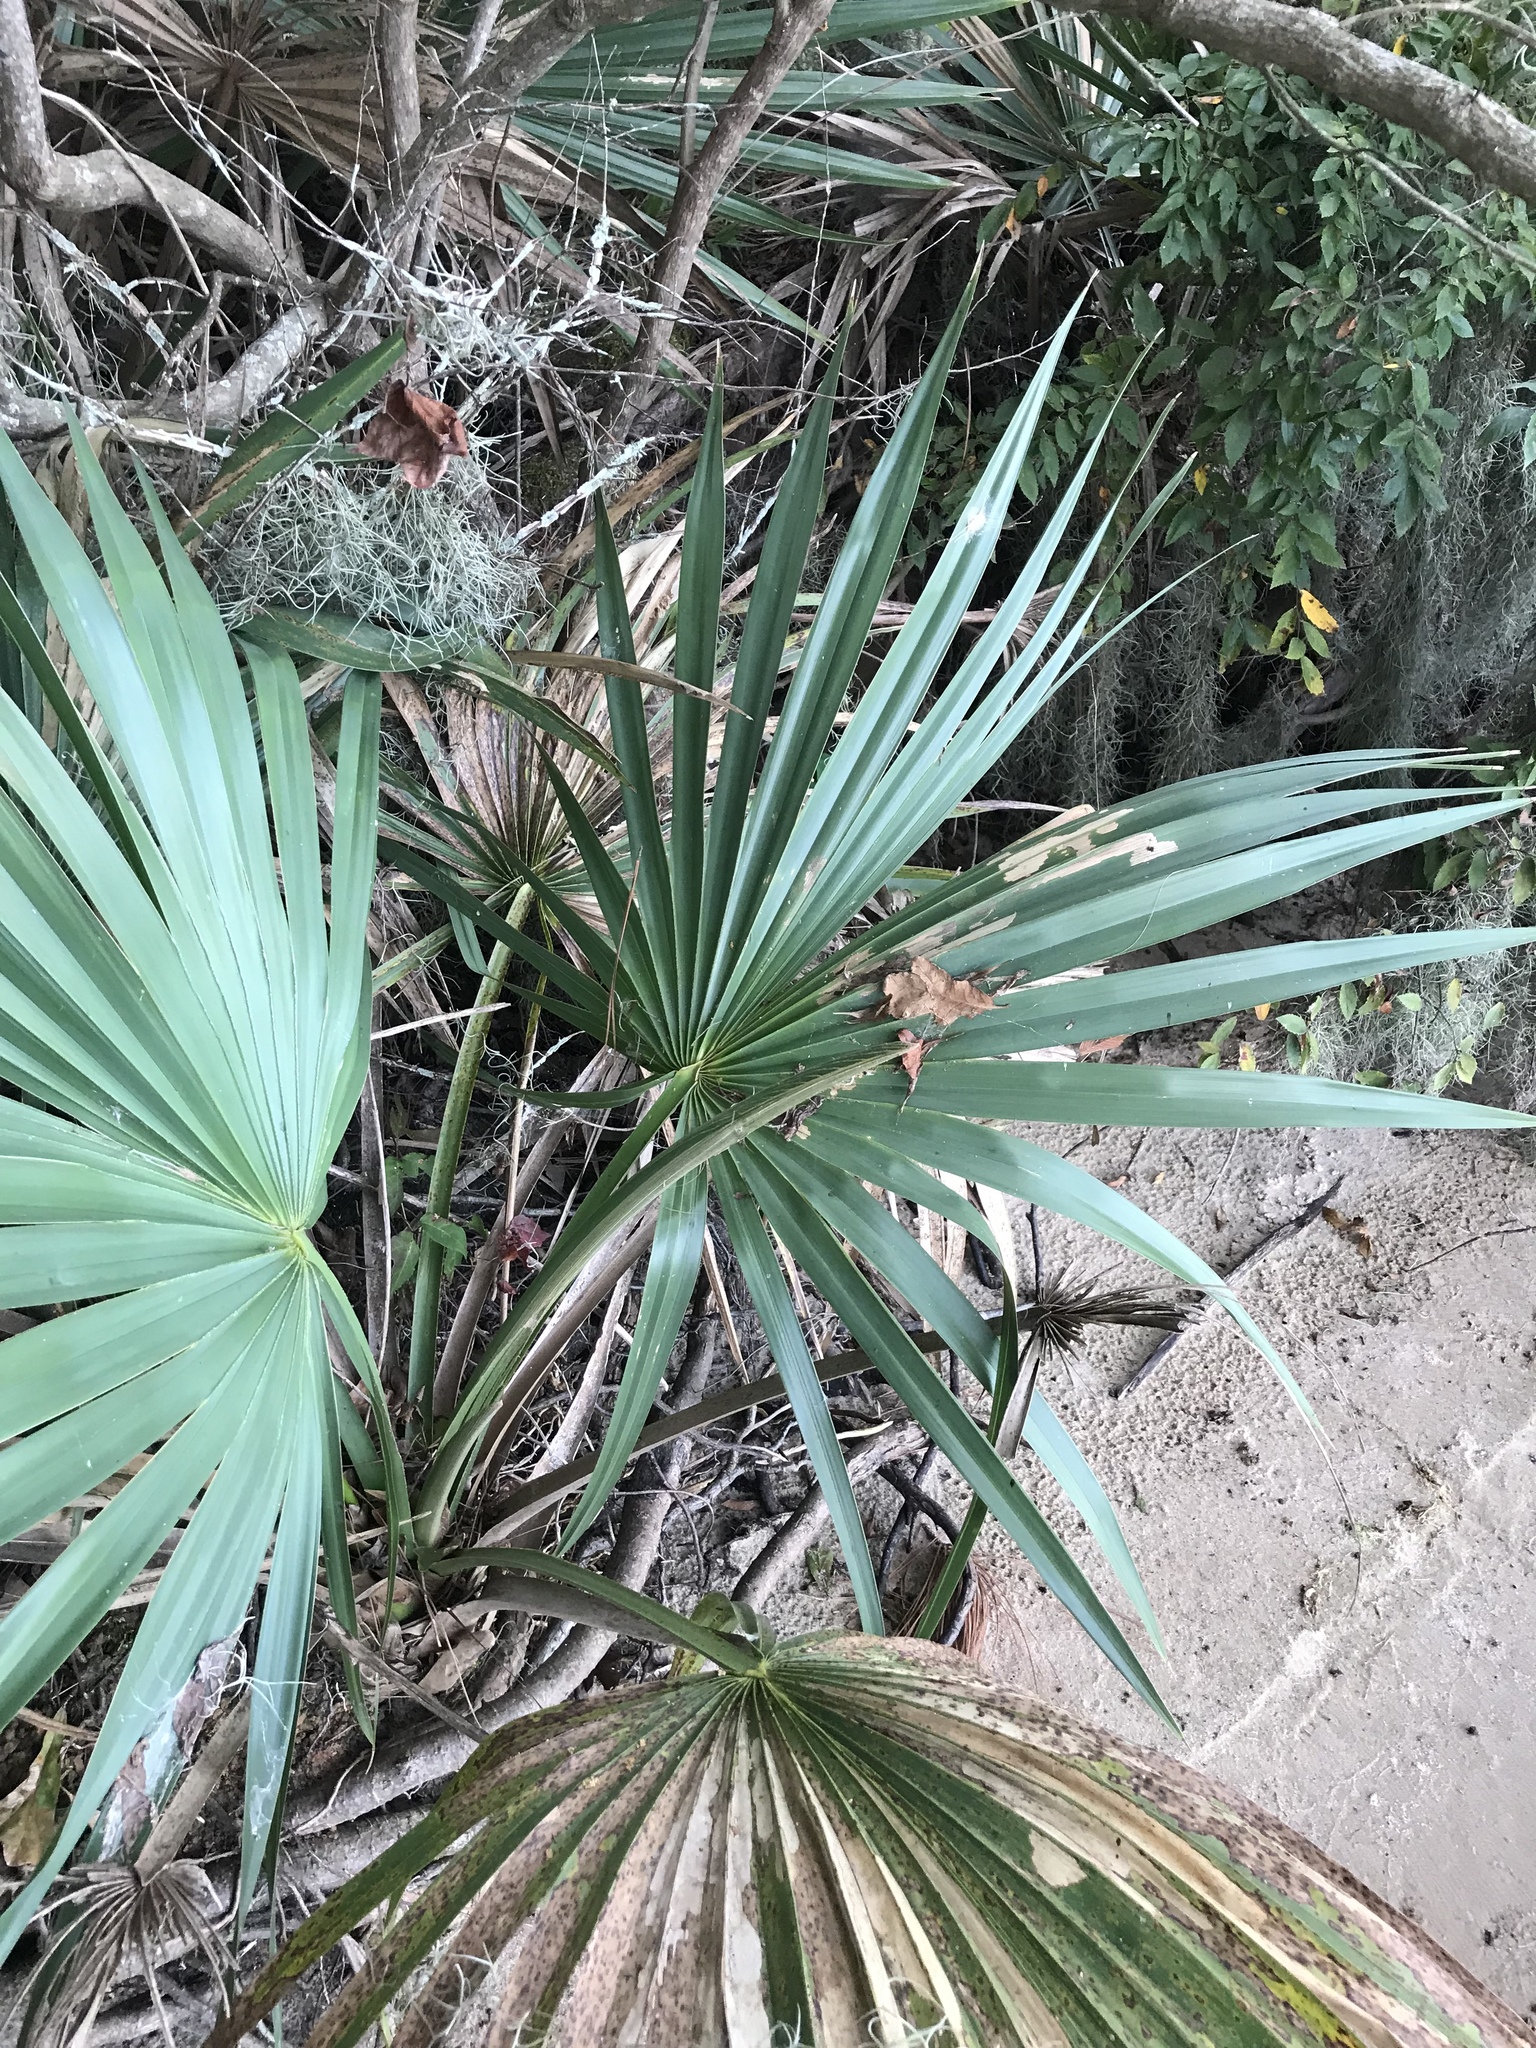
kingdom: Plantae
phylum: Tracheophyta
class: Liliopsida
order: Arecales
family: Arecaceae
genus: Sabal
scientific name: Sabal minor
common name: Dwarf palmetto
